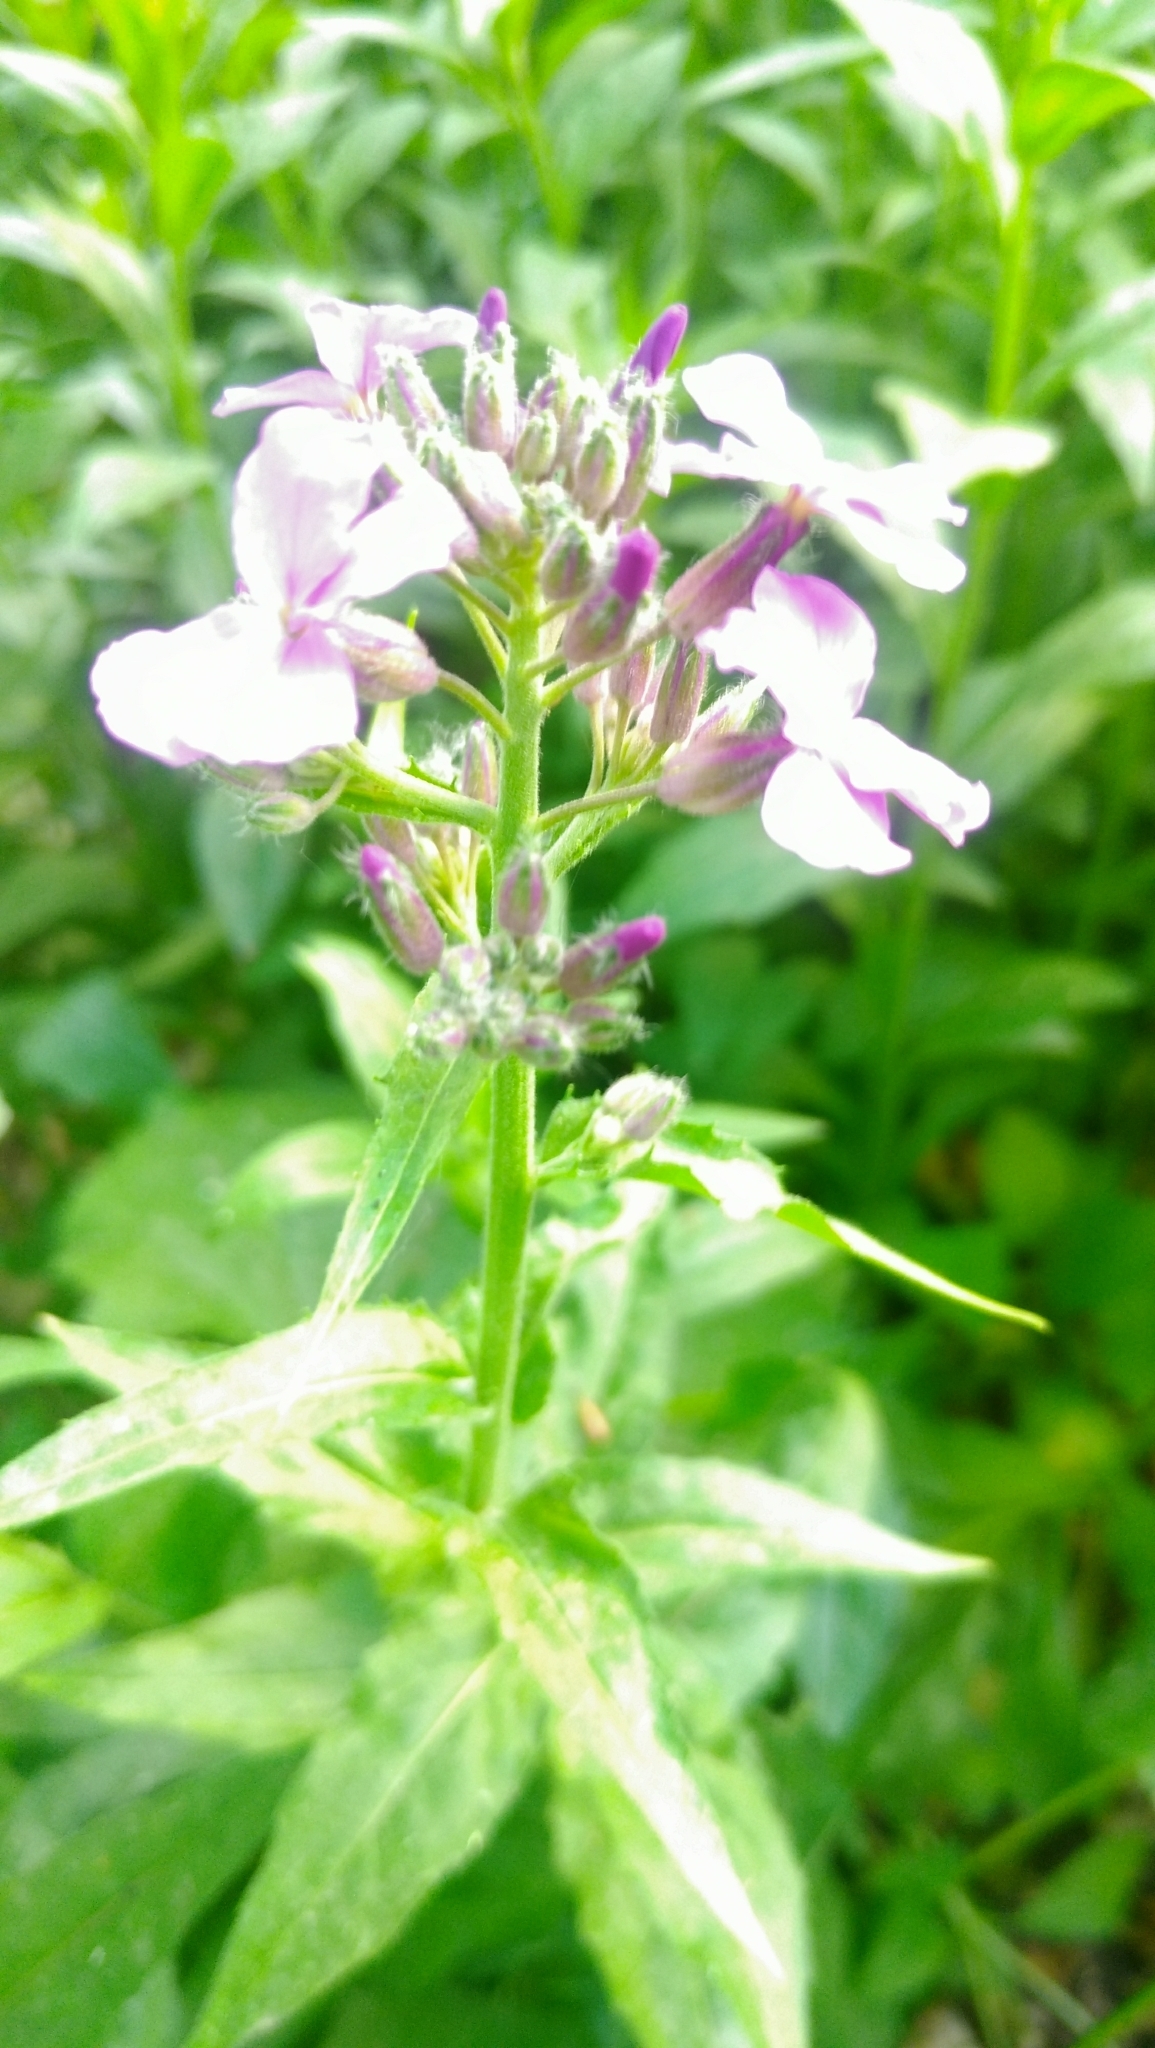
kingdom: Plantae
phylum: Tracheophyta
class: Magnoliopsida
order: Brassicales
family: Brassicaceae
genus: Hesperis
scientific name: Hesperis matronalis
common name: Dame's-violet
